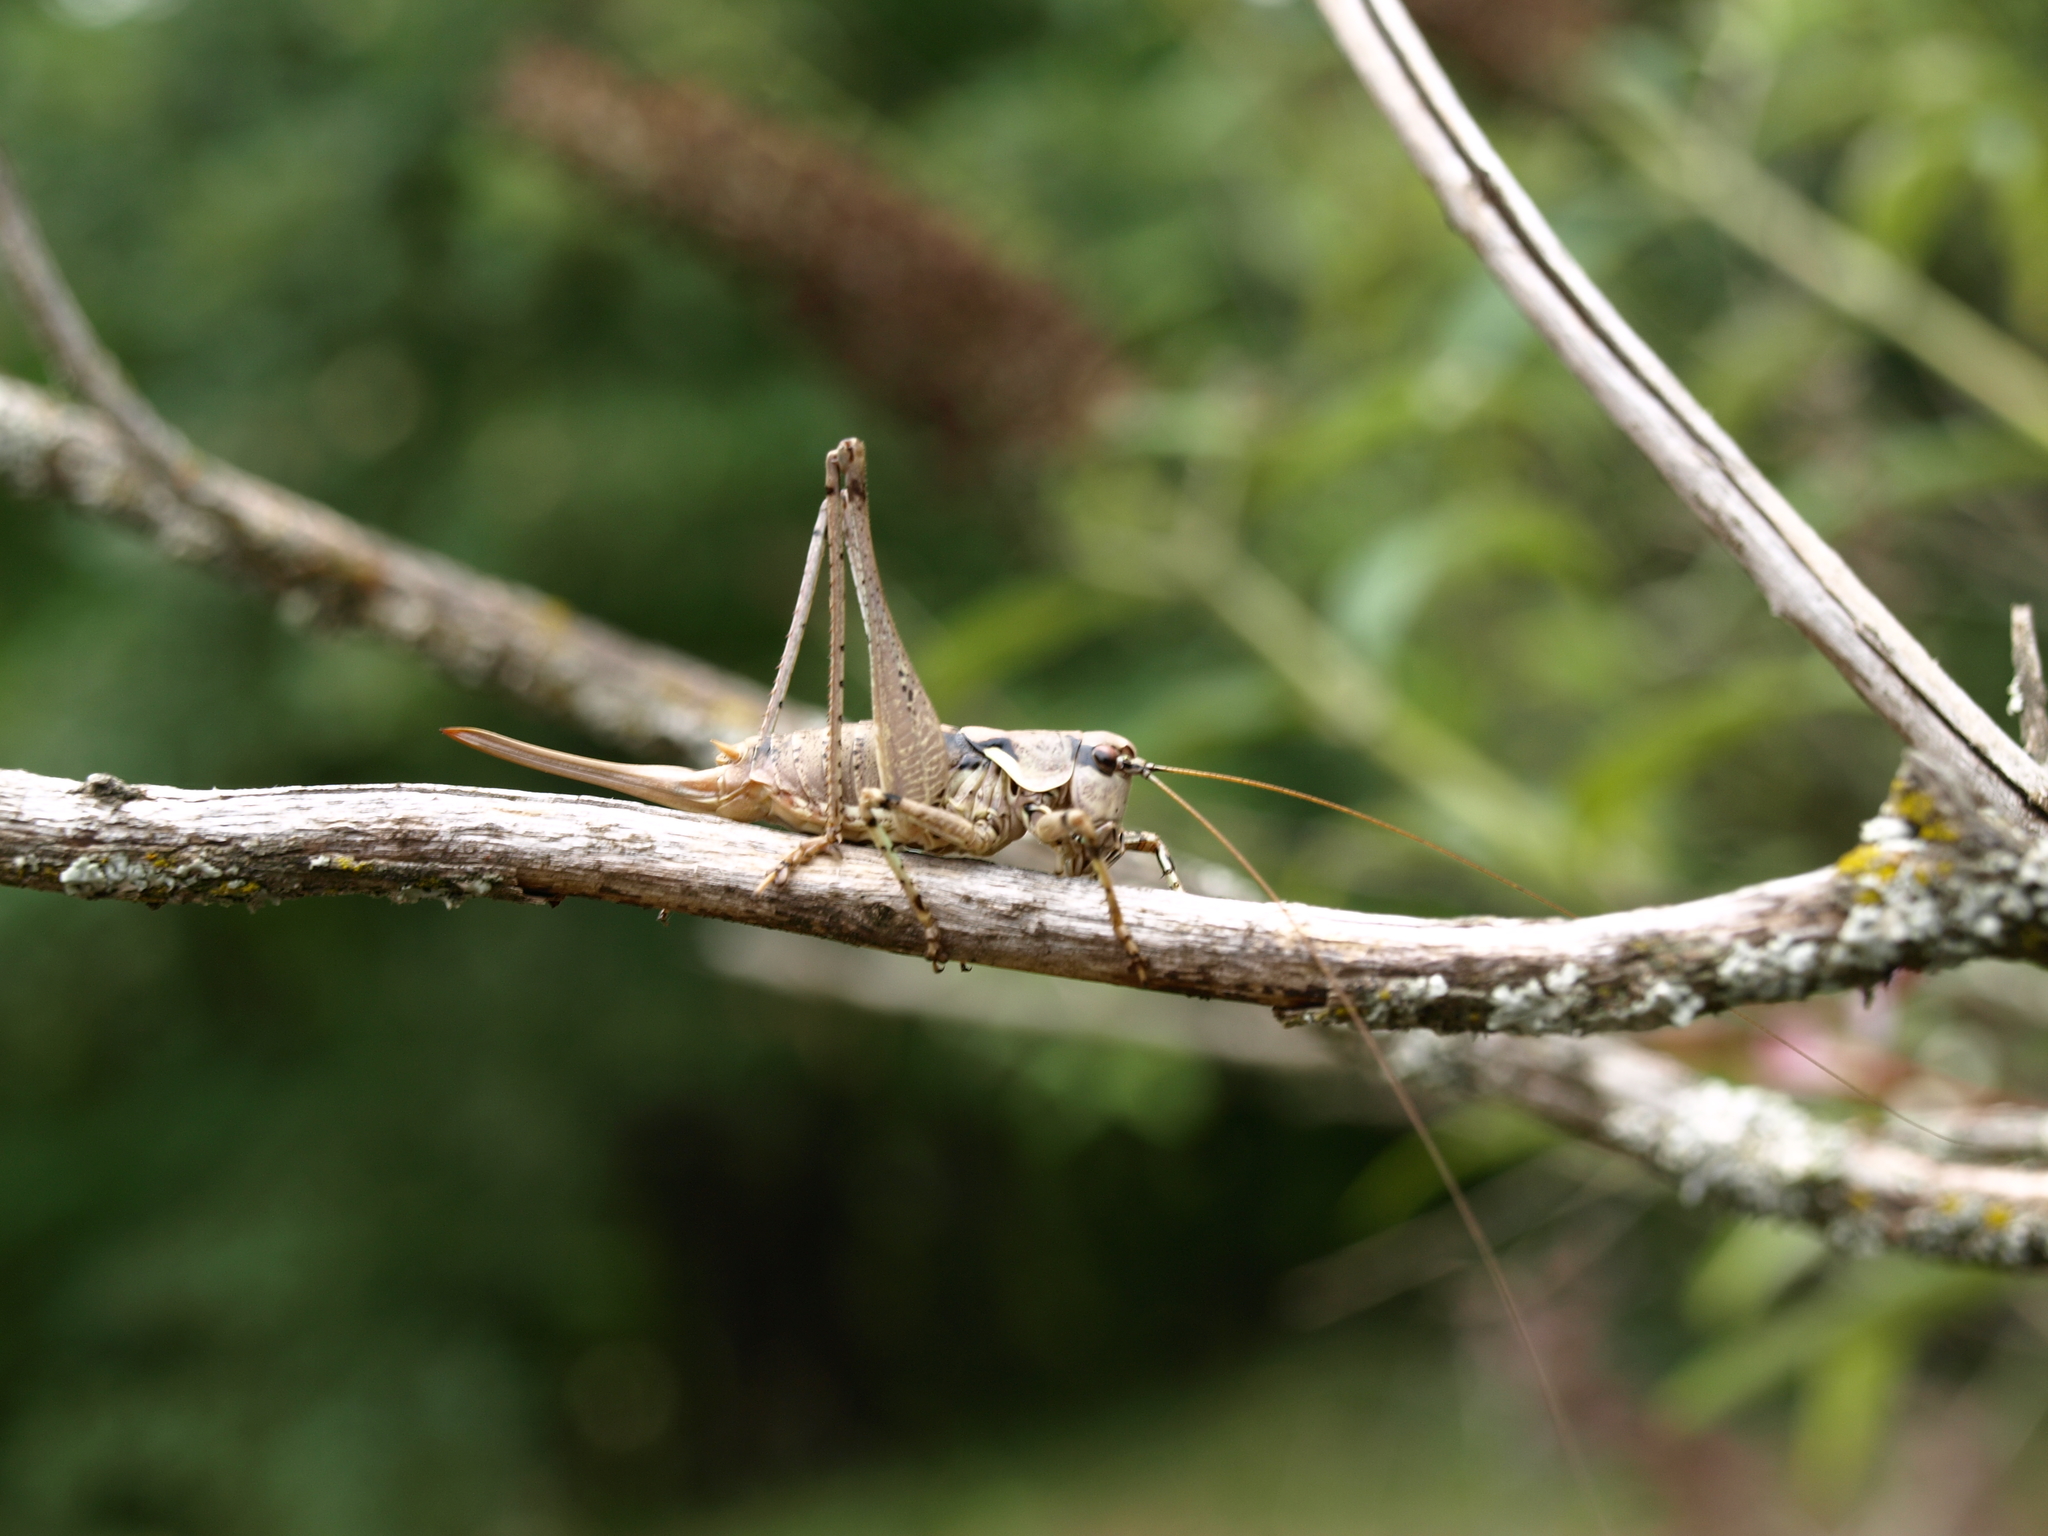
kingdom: Animalia
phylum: Arthropoda
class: Insecta
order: Orthoptera
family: Tettigoniidae
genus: Antaxius
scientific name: Antaxius pedestris
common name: Common mountain bush-cricket
